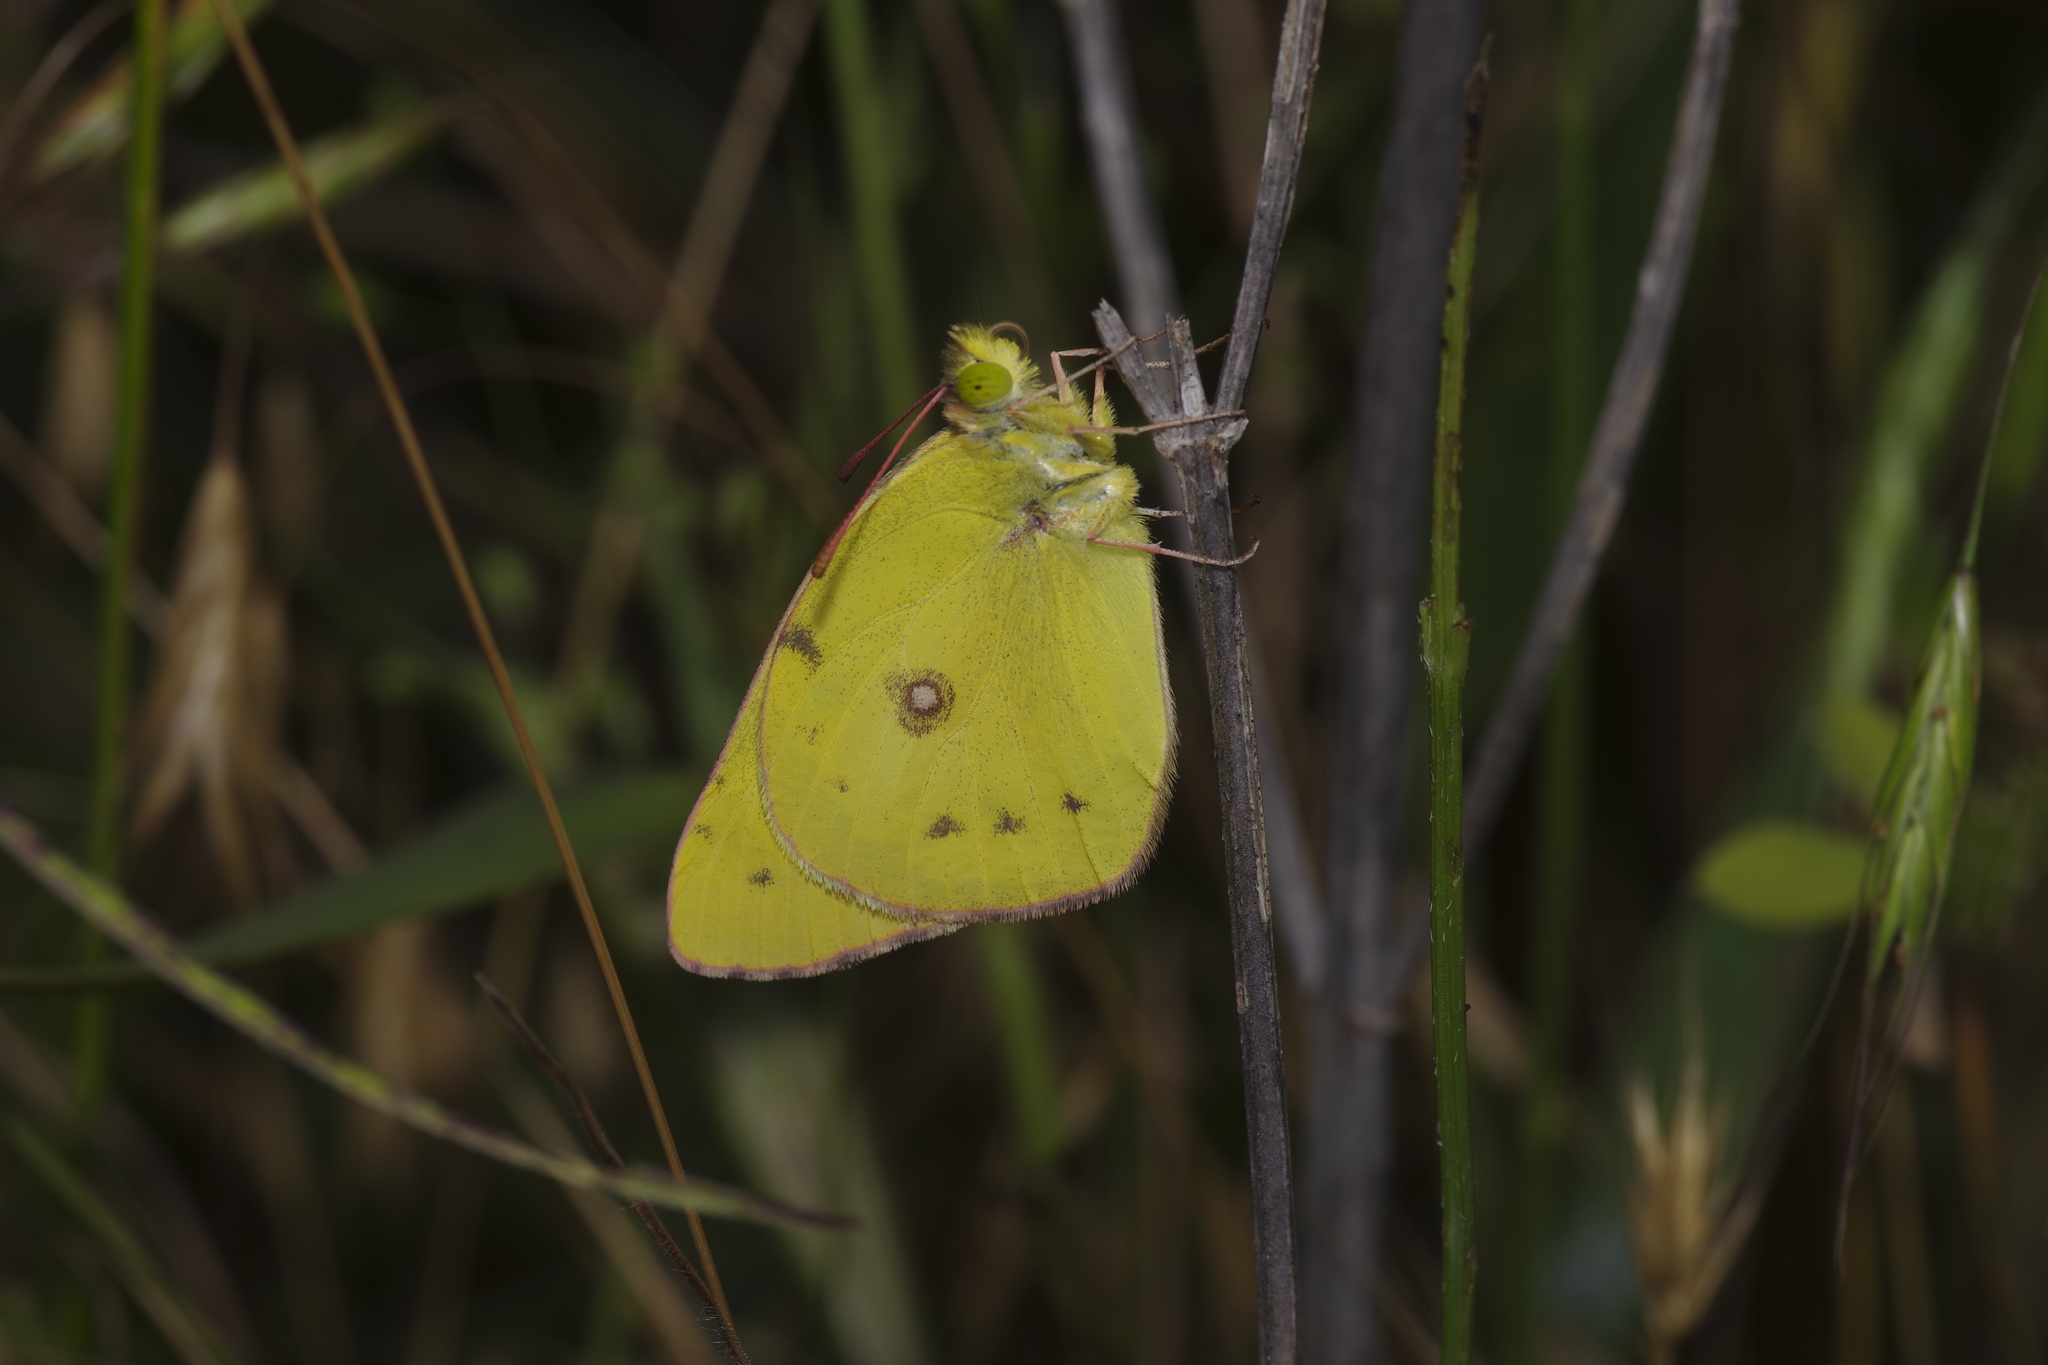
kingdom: Animalia
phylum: Arthropoda
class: Insecta
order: Lepidoptera
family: Pieridae
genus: Colias
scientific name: Colias eurytheme
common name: Alfalfa butterfly
